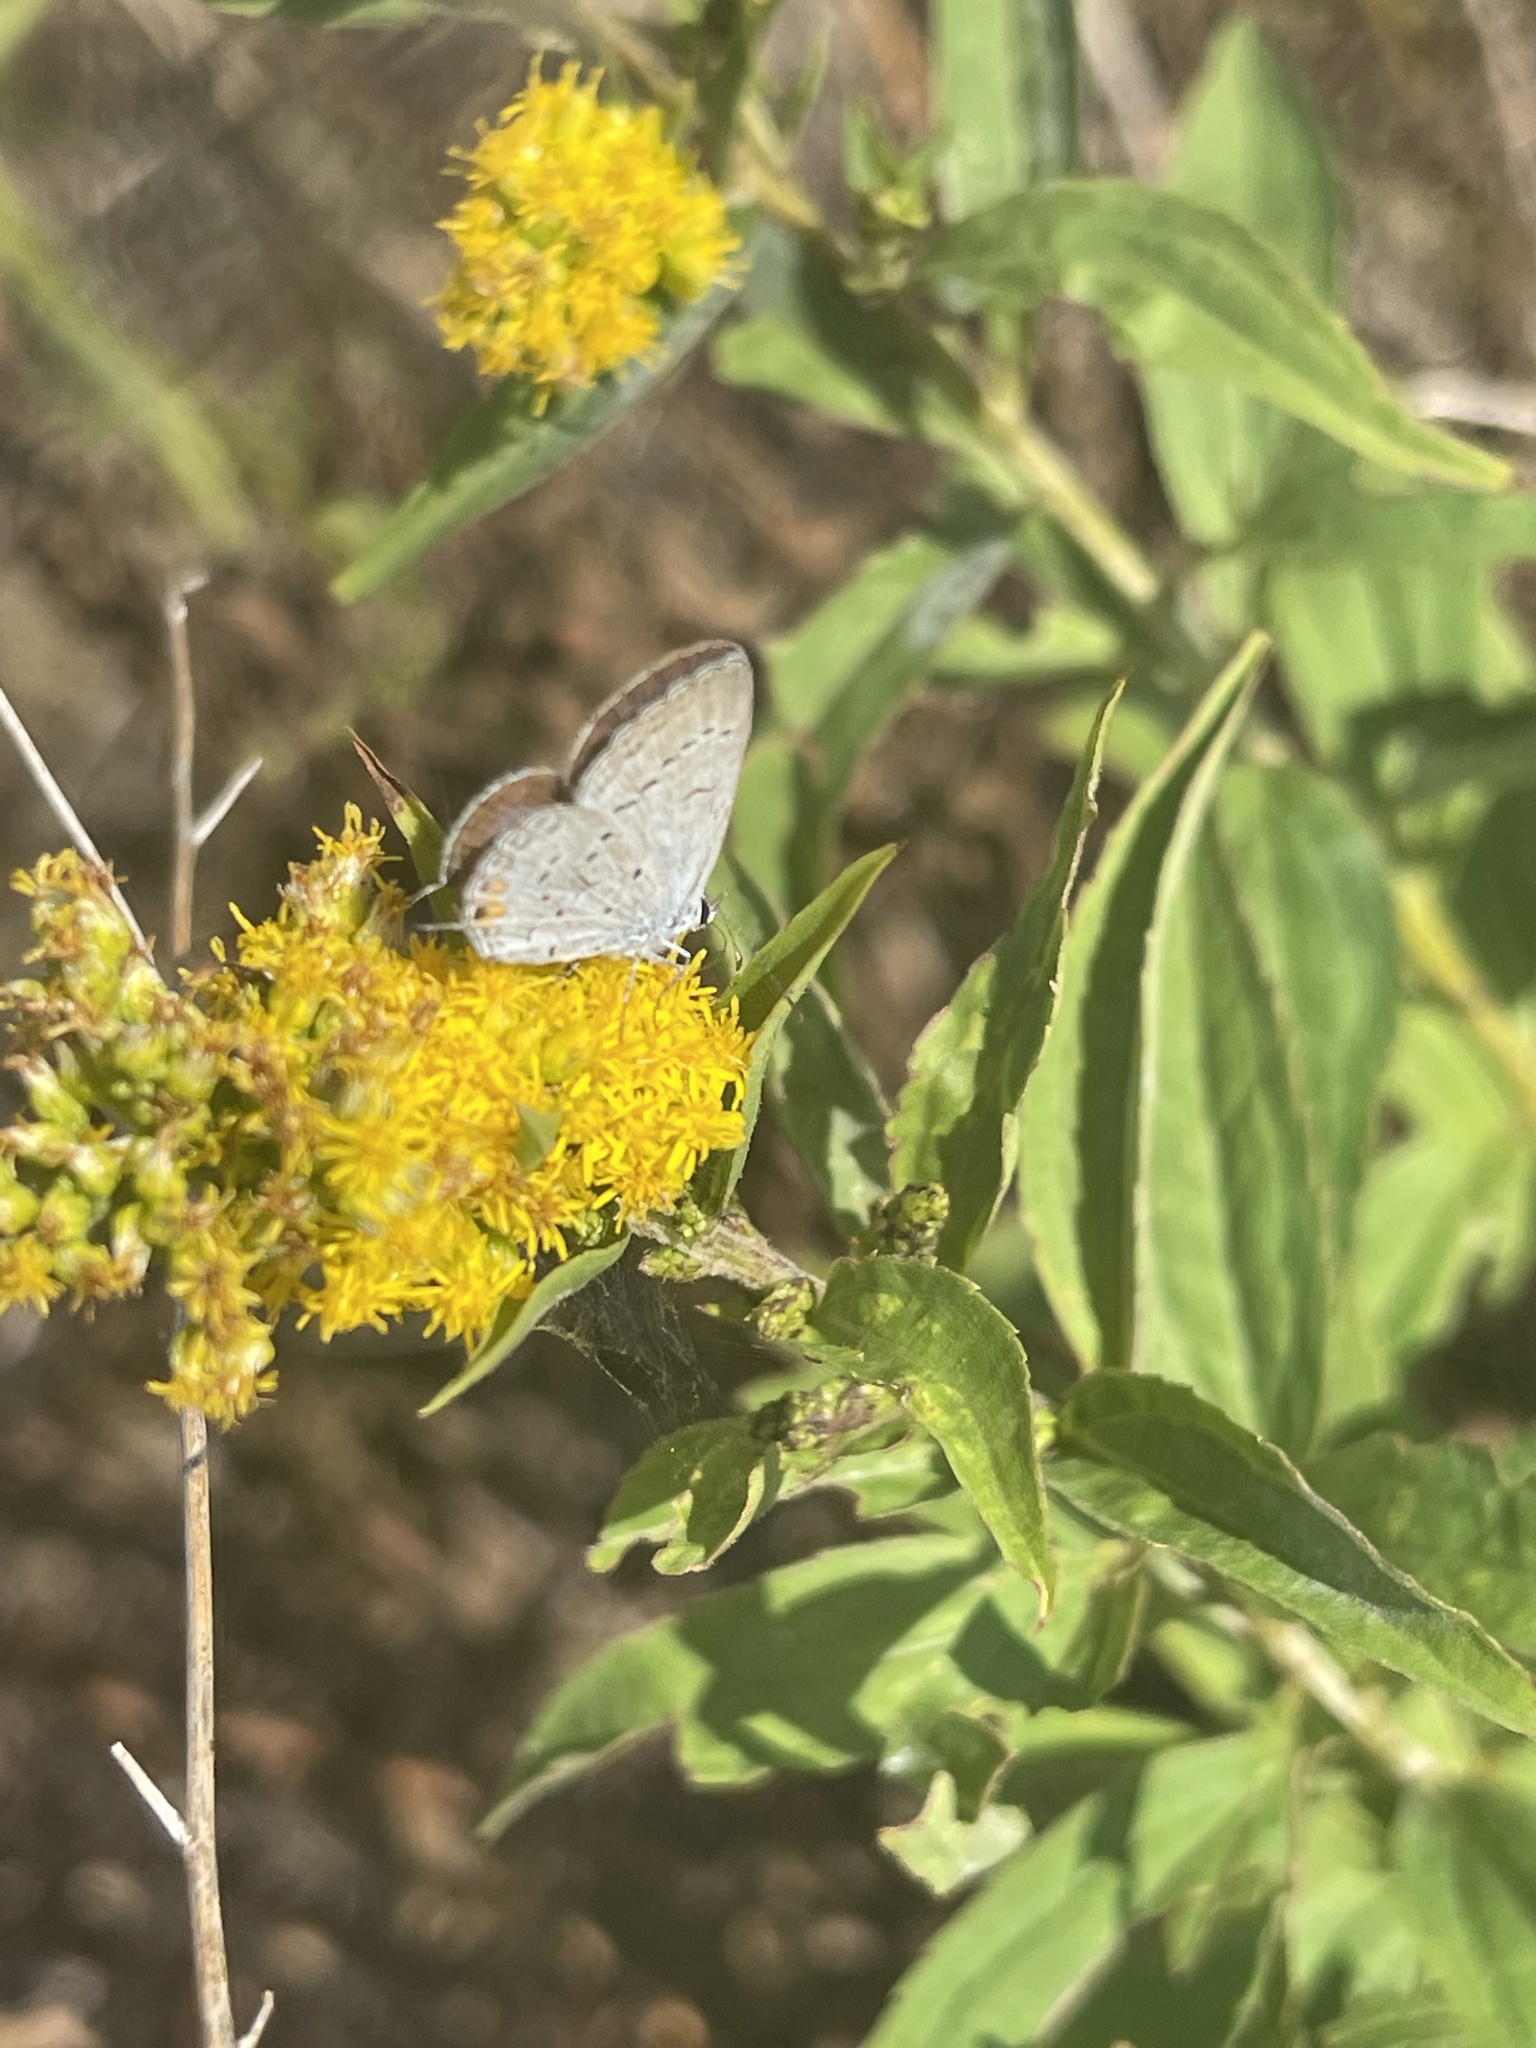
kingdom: Animalia
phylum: Arthropoda
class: Insecta
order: Lepidoptera
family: Lycaenidae
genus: Elkalyce
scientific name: Elkalyce comyntas
